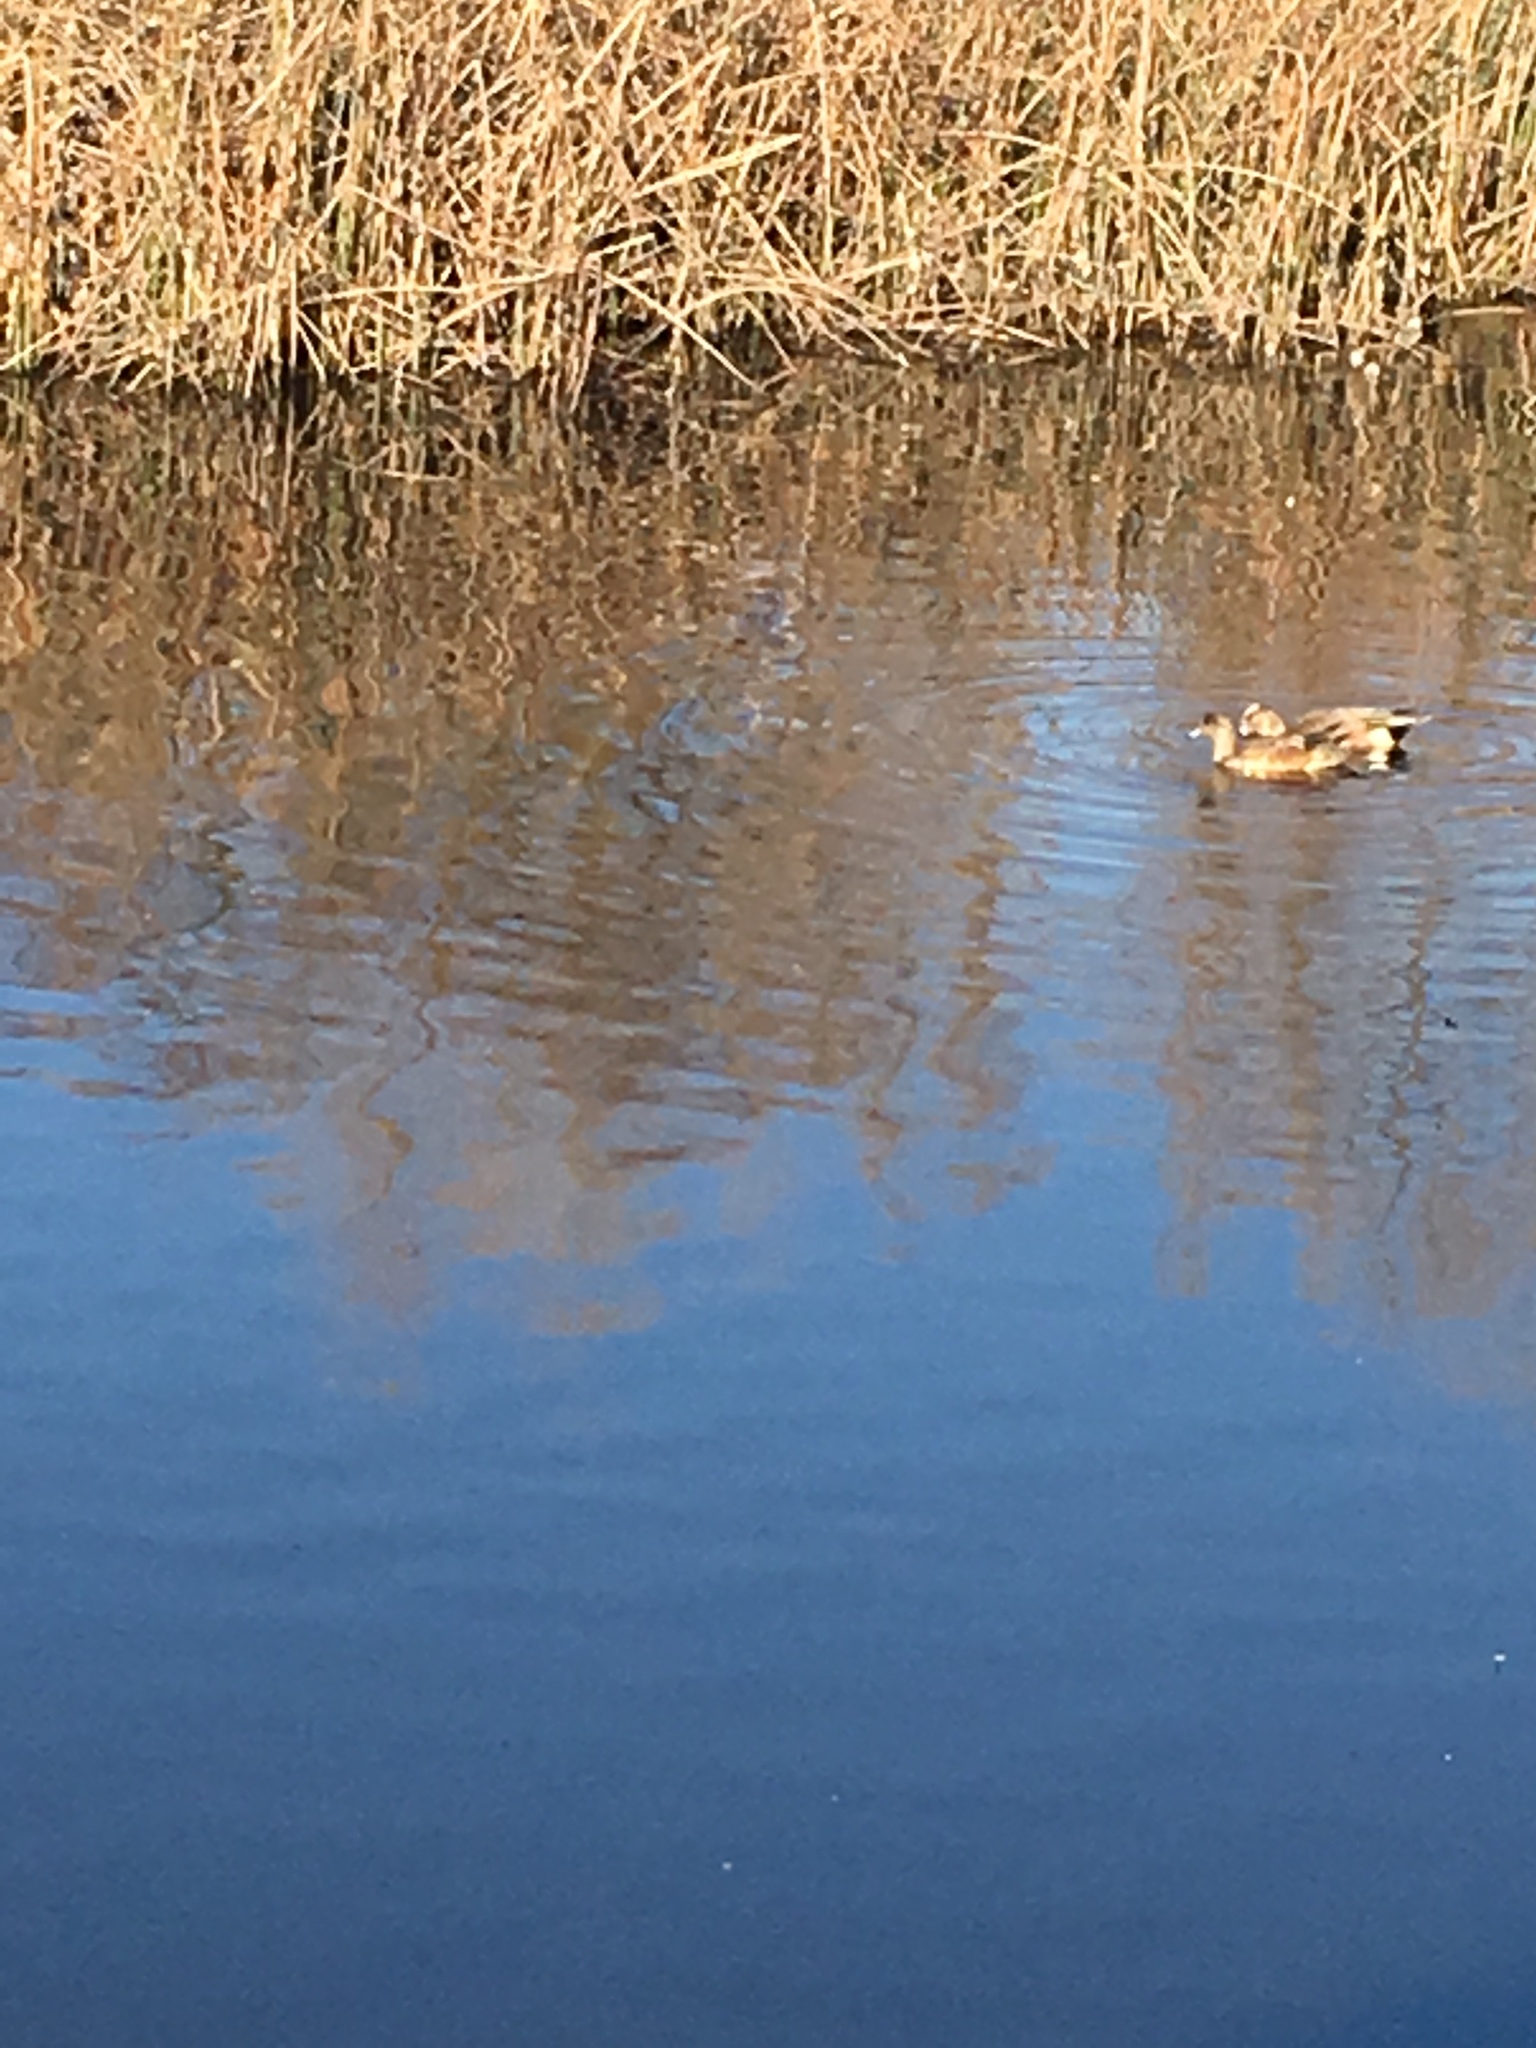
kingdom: Animalia
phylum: Chordata
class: Aves
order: Anseriformes
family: Anatidae
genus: Mareca
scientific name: Mareca americana
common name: American wigeon
